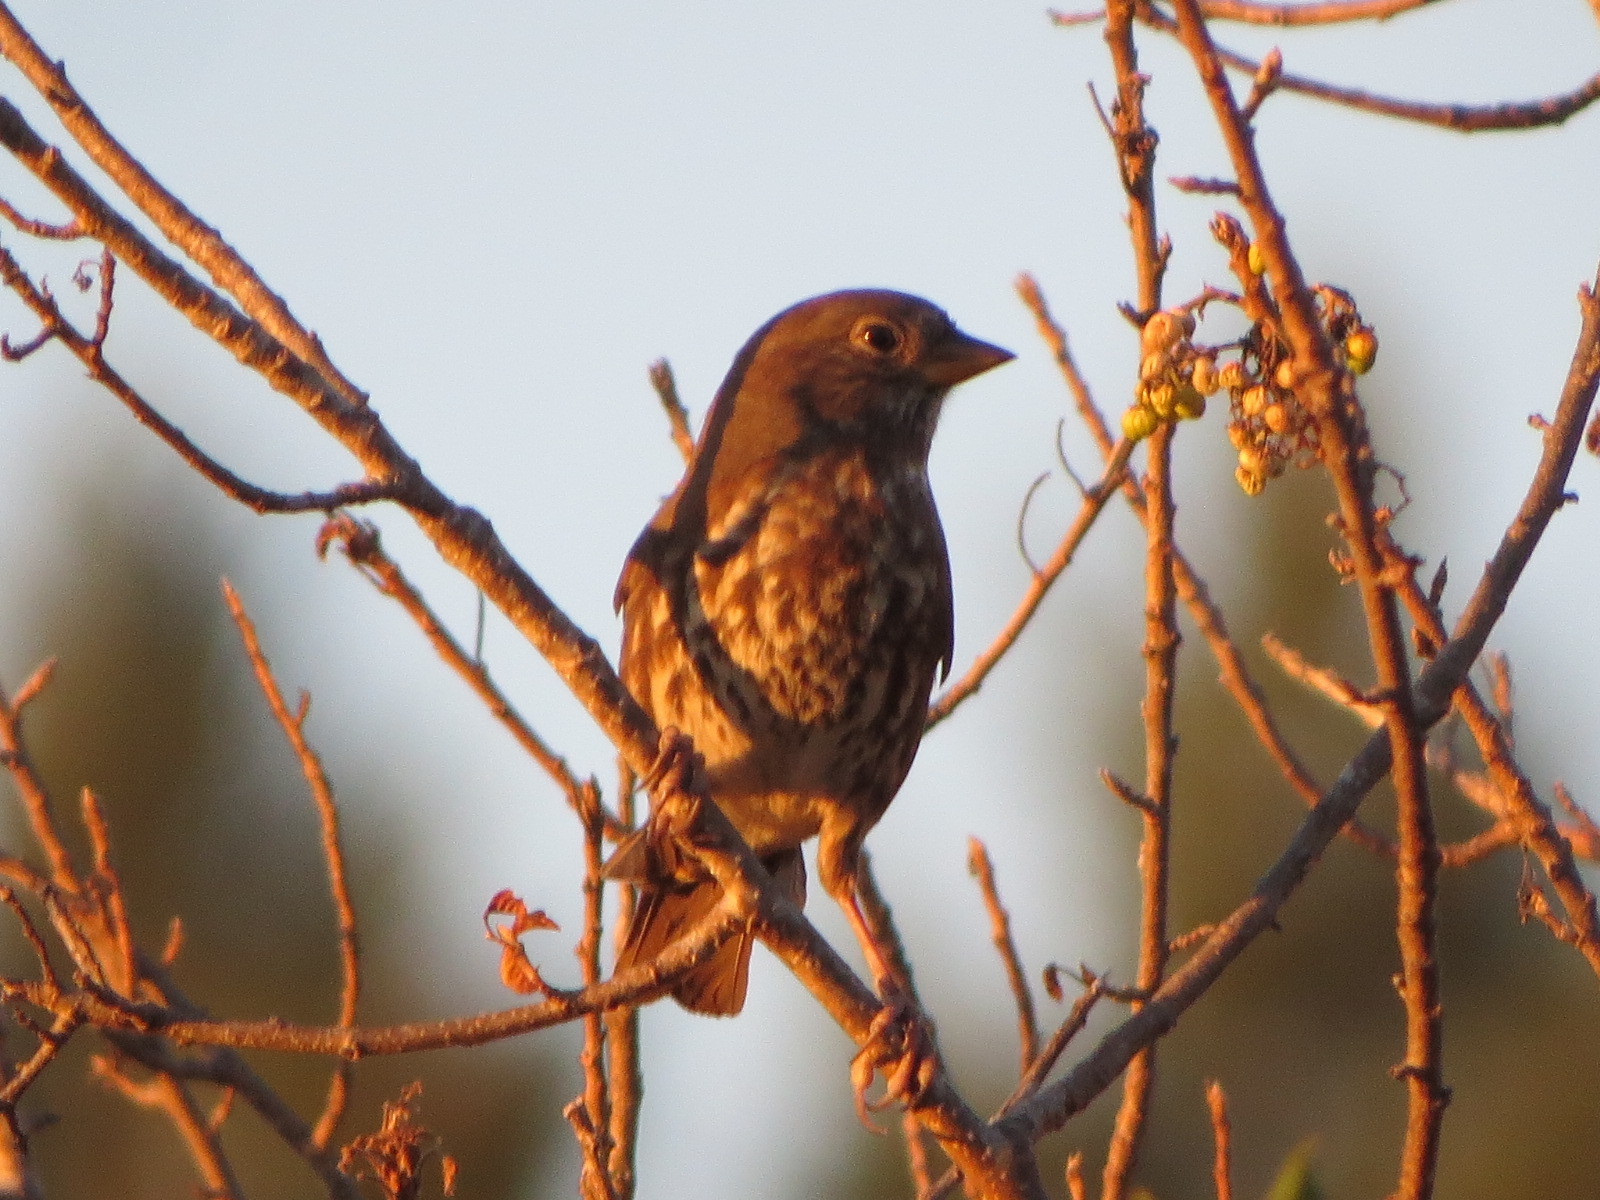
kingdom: Animalia
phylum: Chordata
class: Aves
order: Passeriformes
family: Passerellidae
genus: Passerella
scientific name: Passerella iliaca
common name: Fox sparrow
